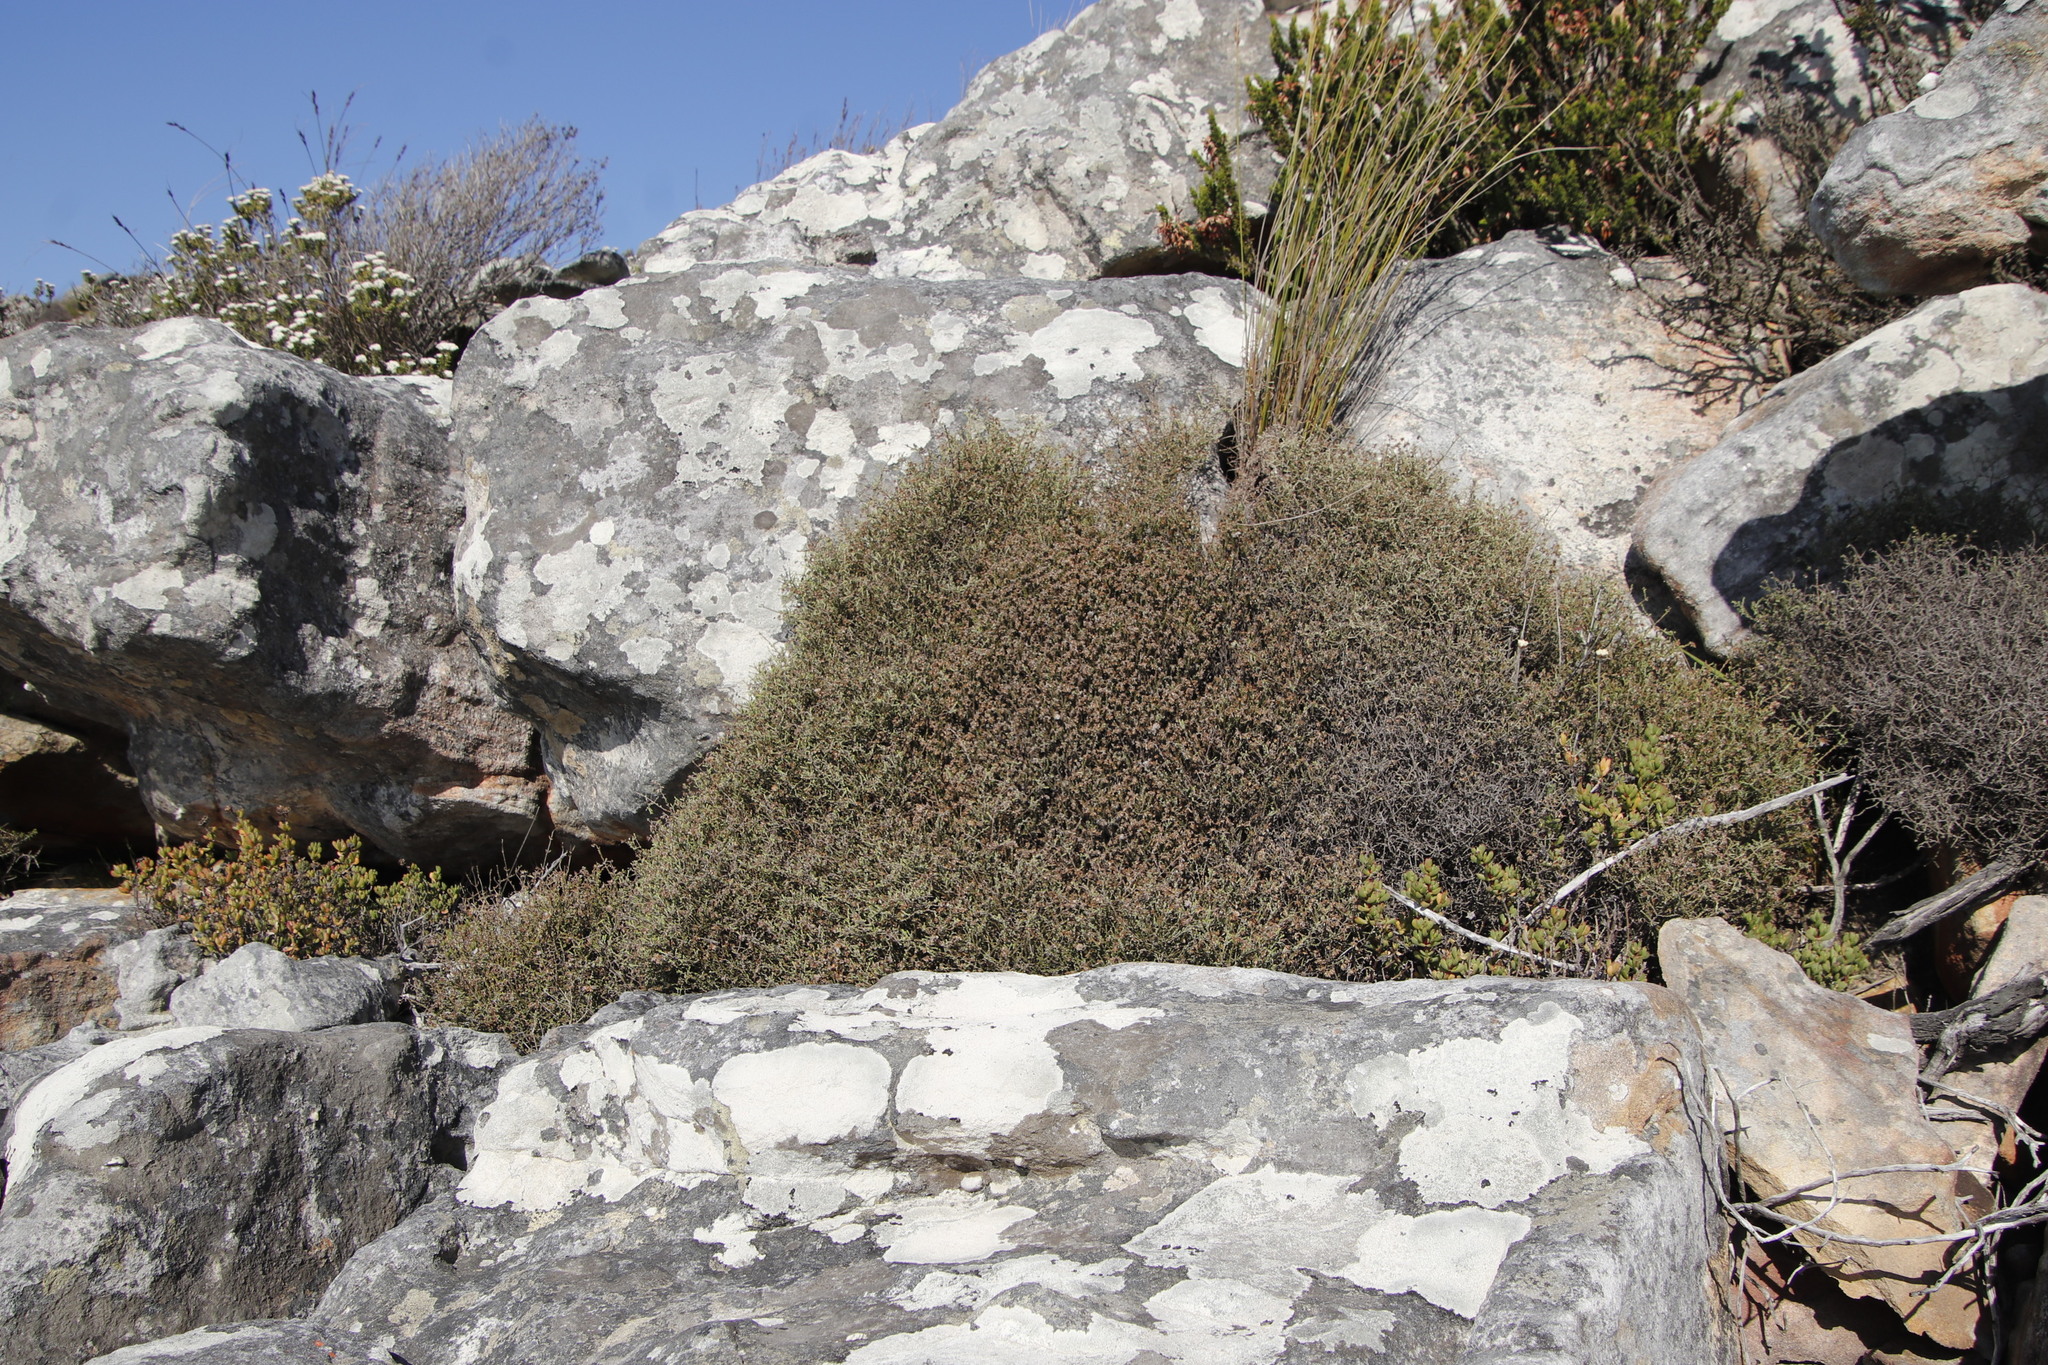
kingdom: Plantae
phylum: Tracheophyta
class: Magnoliopsida
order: Asterales
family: Asteraceae
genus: Myrovernix
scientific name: Myrovernix scaber
